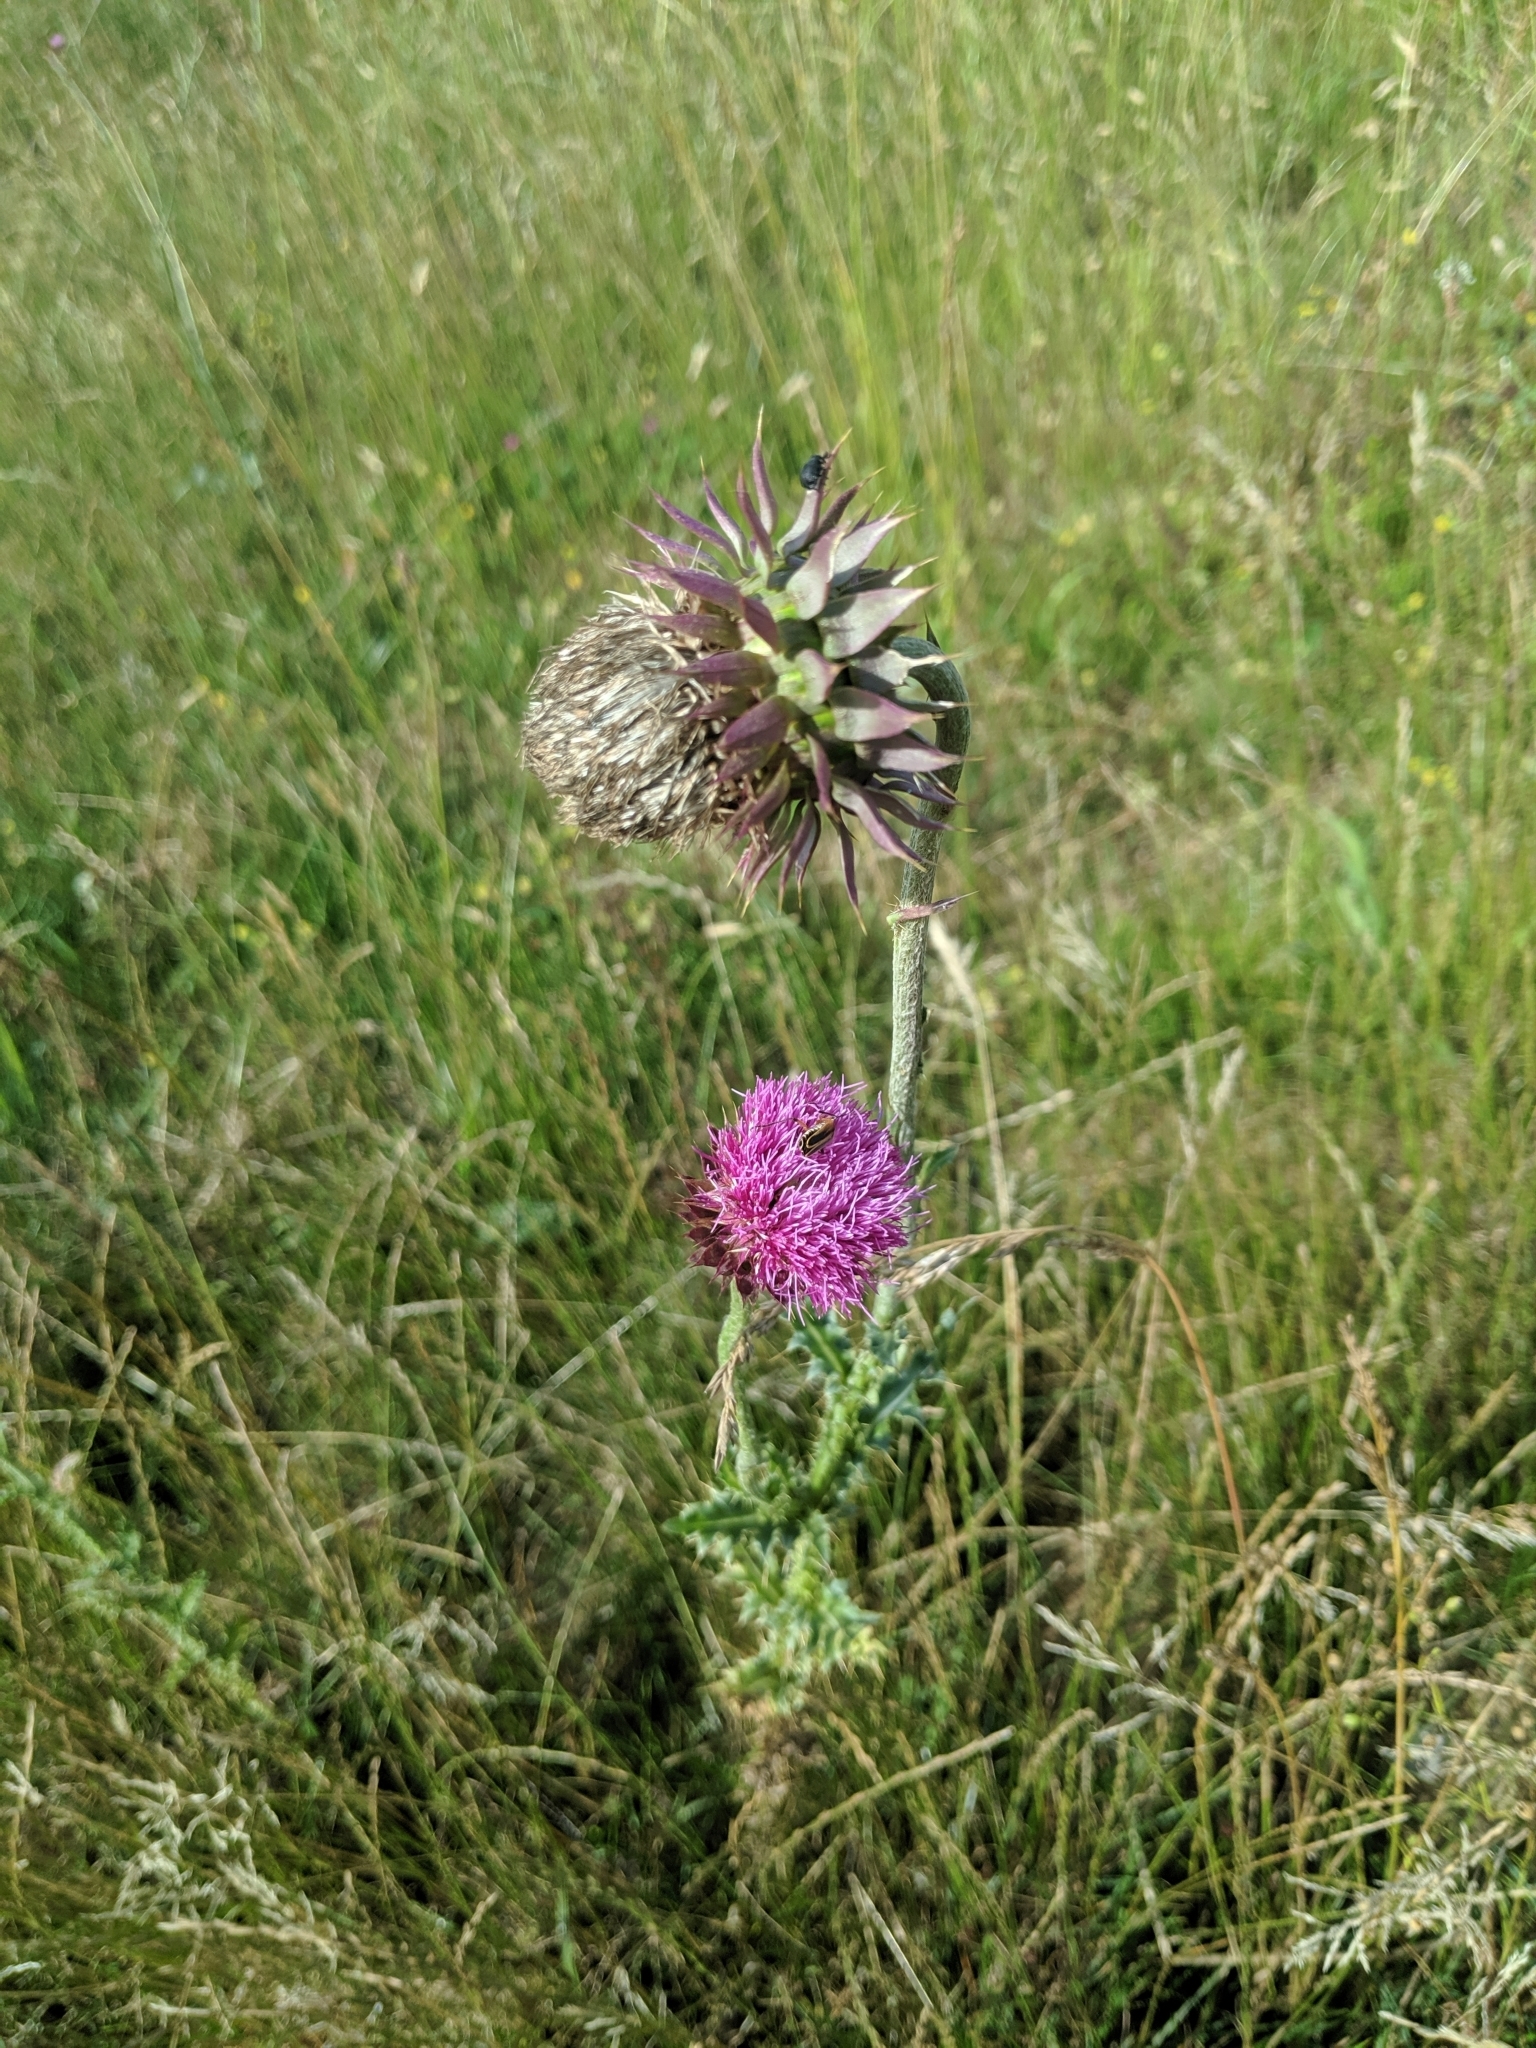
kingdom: Plantae
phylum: Tracheophyta
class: Magnoliopsida
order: Asterales
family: Asteraceae
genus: Carduus
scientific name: Carduus nutans
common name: Musk thistle
